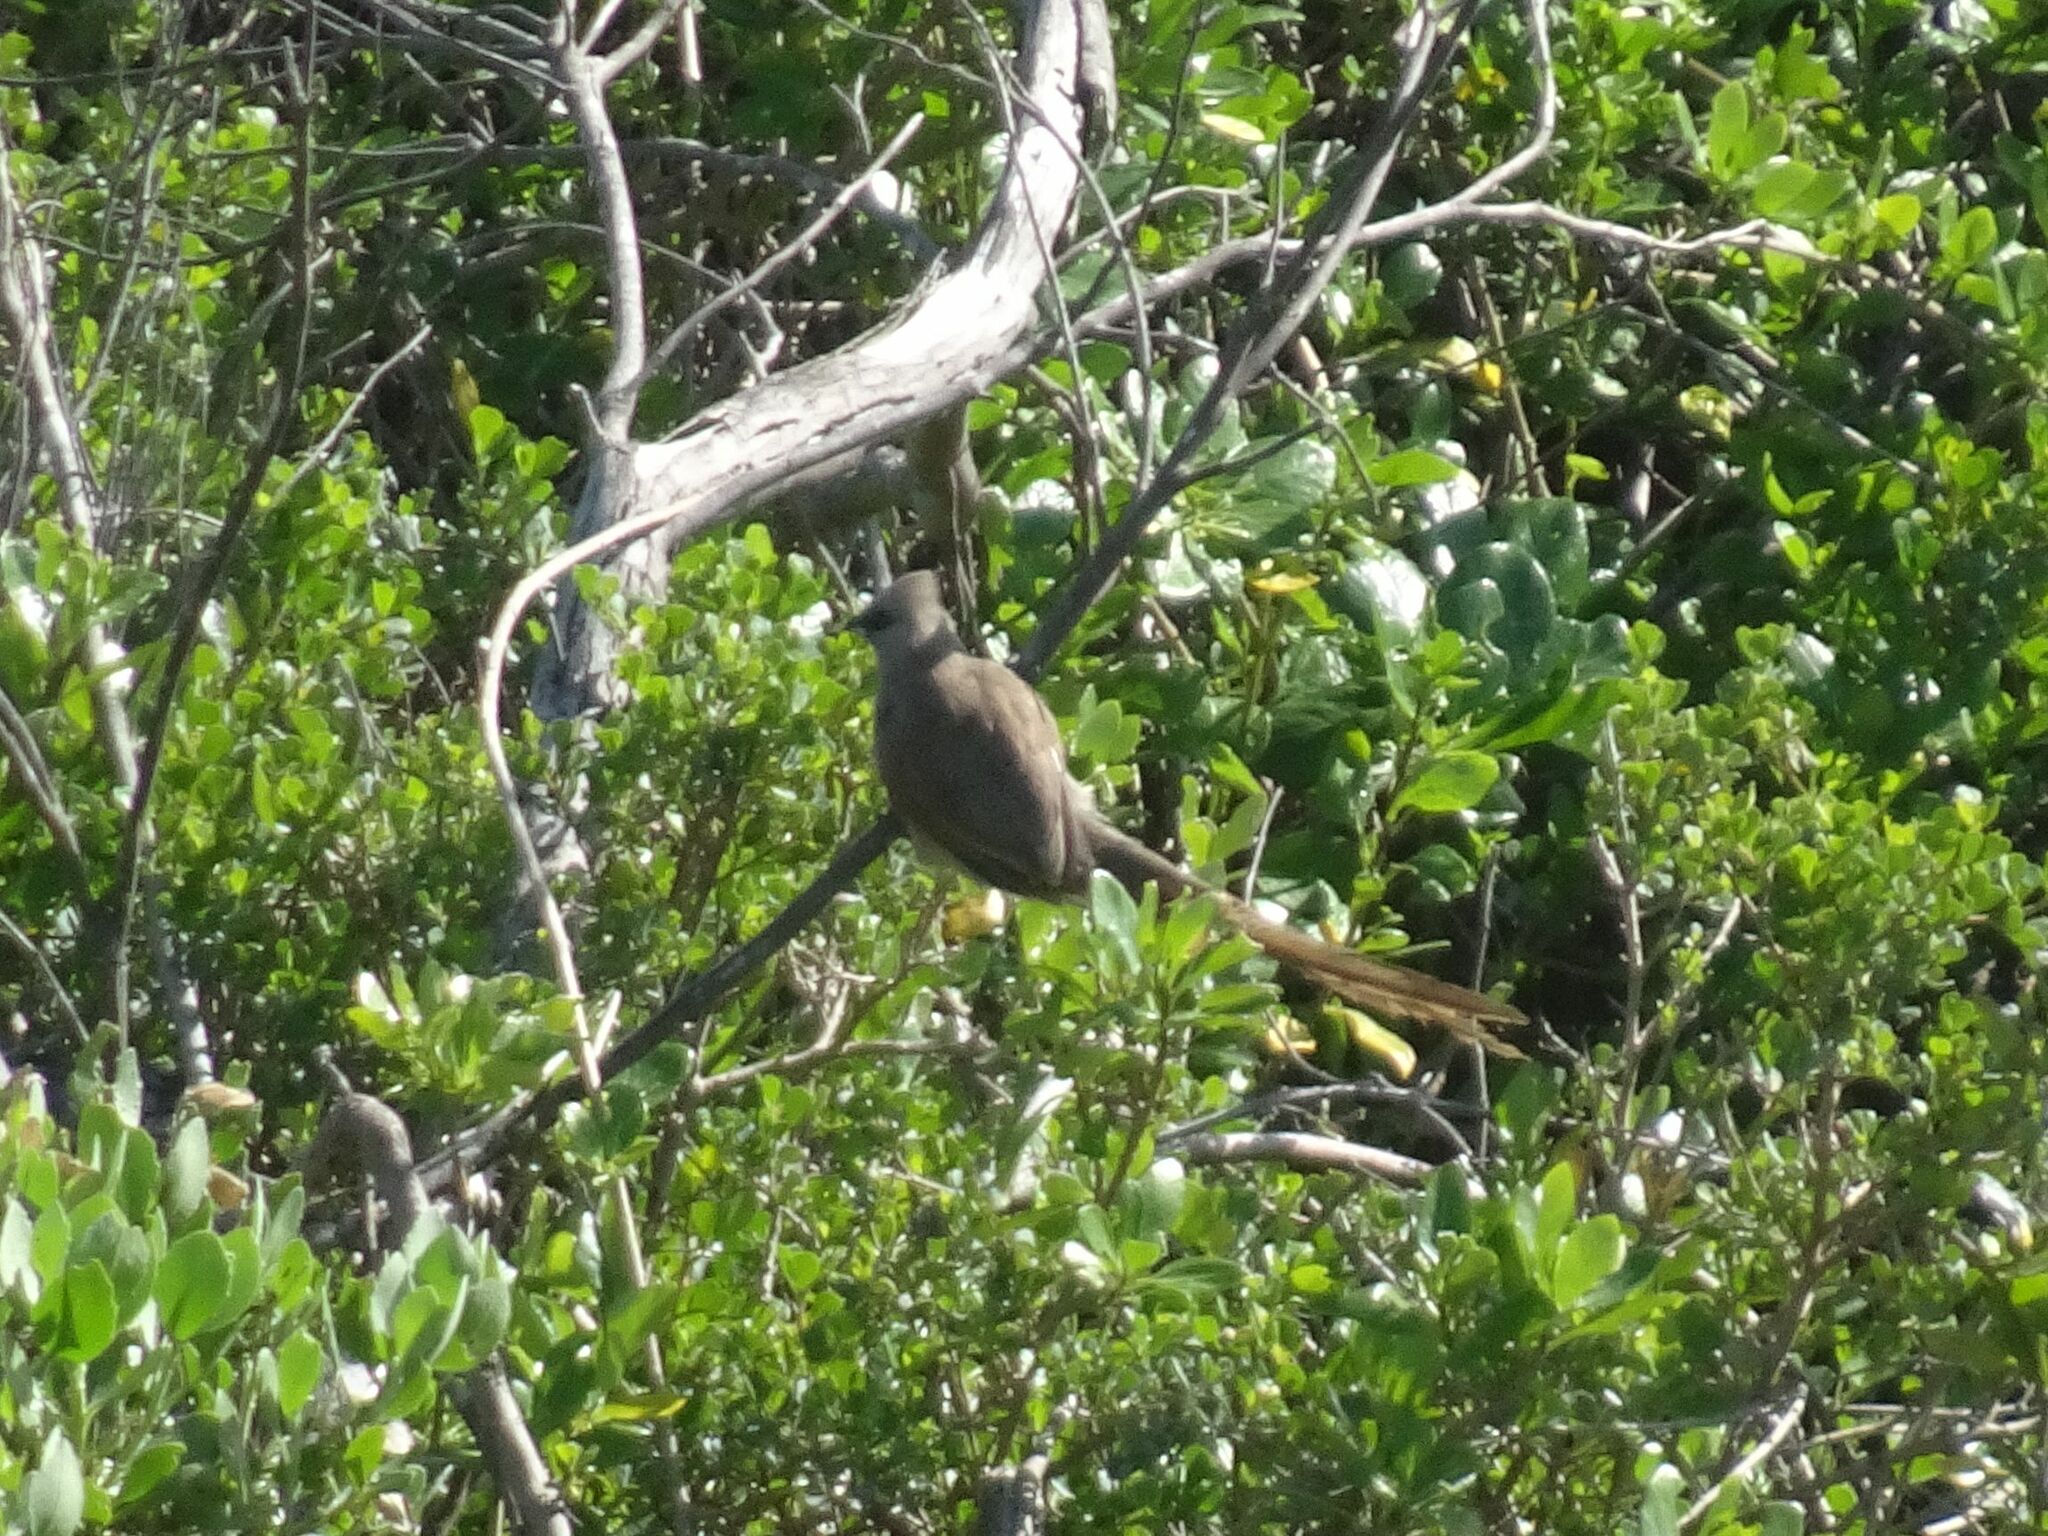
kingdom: Animalia
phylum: Chordata
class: Aves
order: Coliiformes
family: Coliidae
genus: Colius
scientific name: Colius striatus
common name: Speckled mousebird
